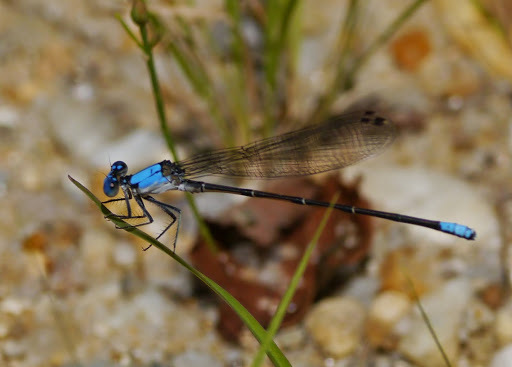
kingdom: Animalia
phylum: Arthropoda
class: Insecta
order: Odonata
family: Coenagrionidae
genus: Argia
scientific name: Argia apicalis
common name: Blue-fronted dancer
